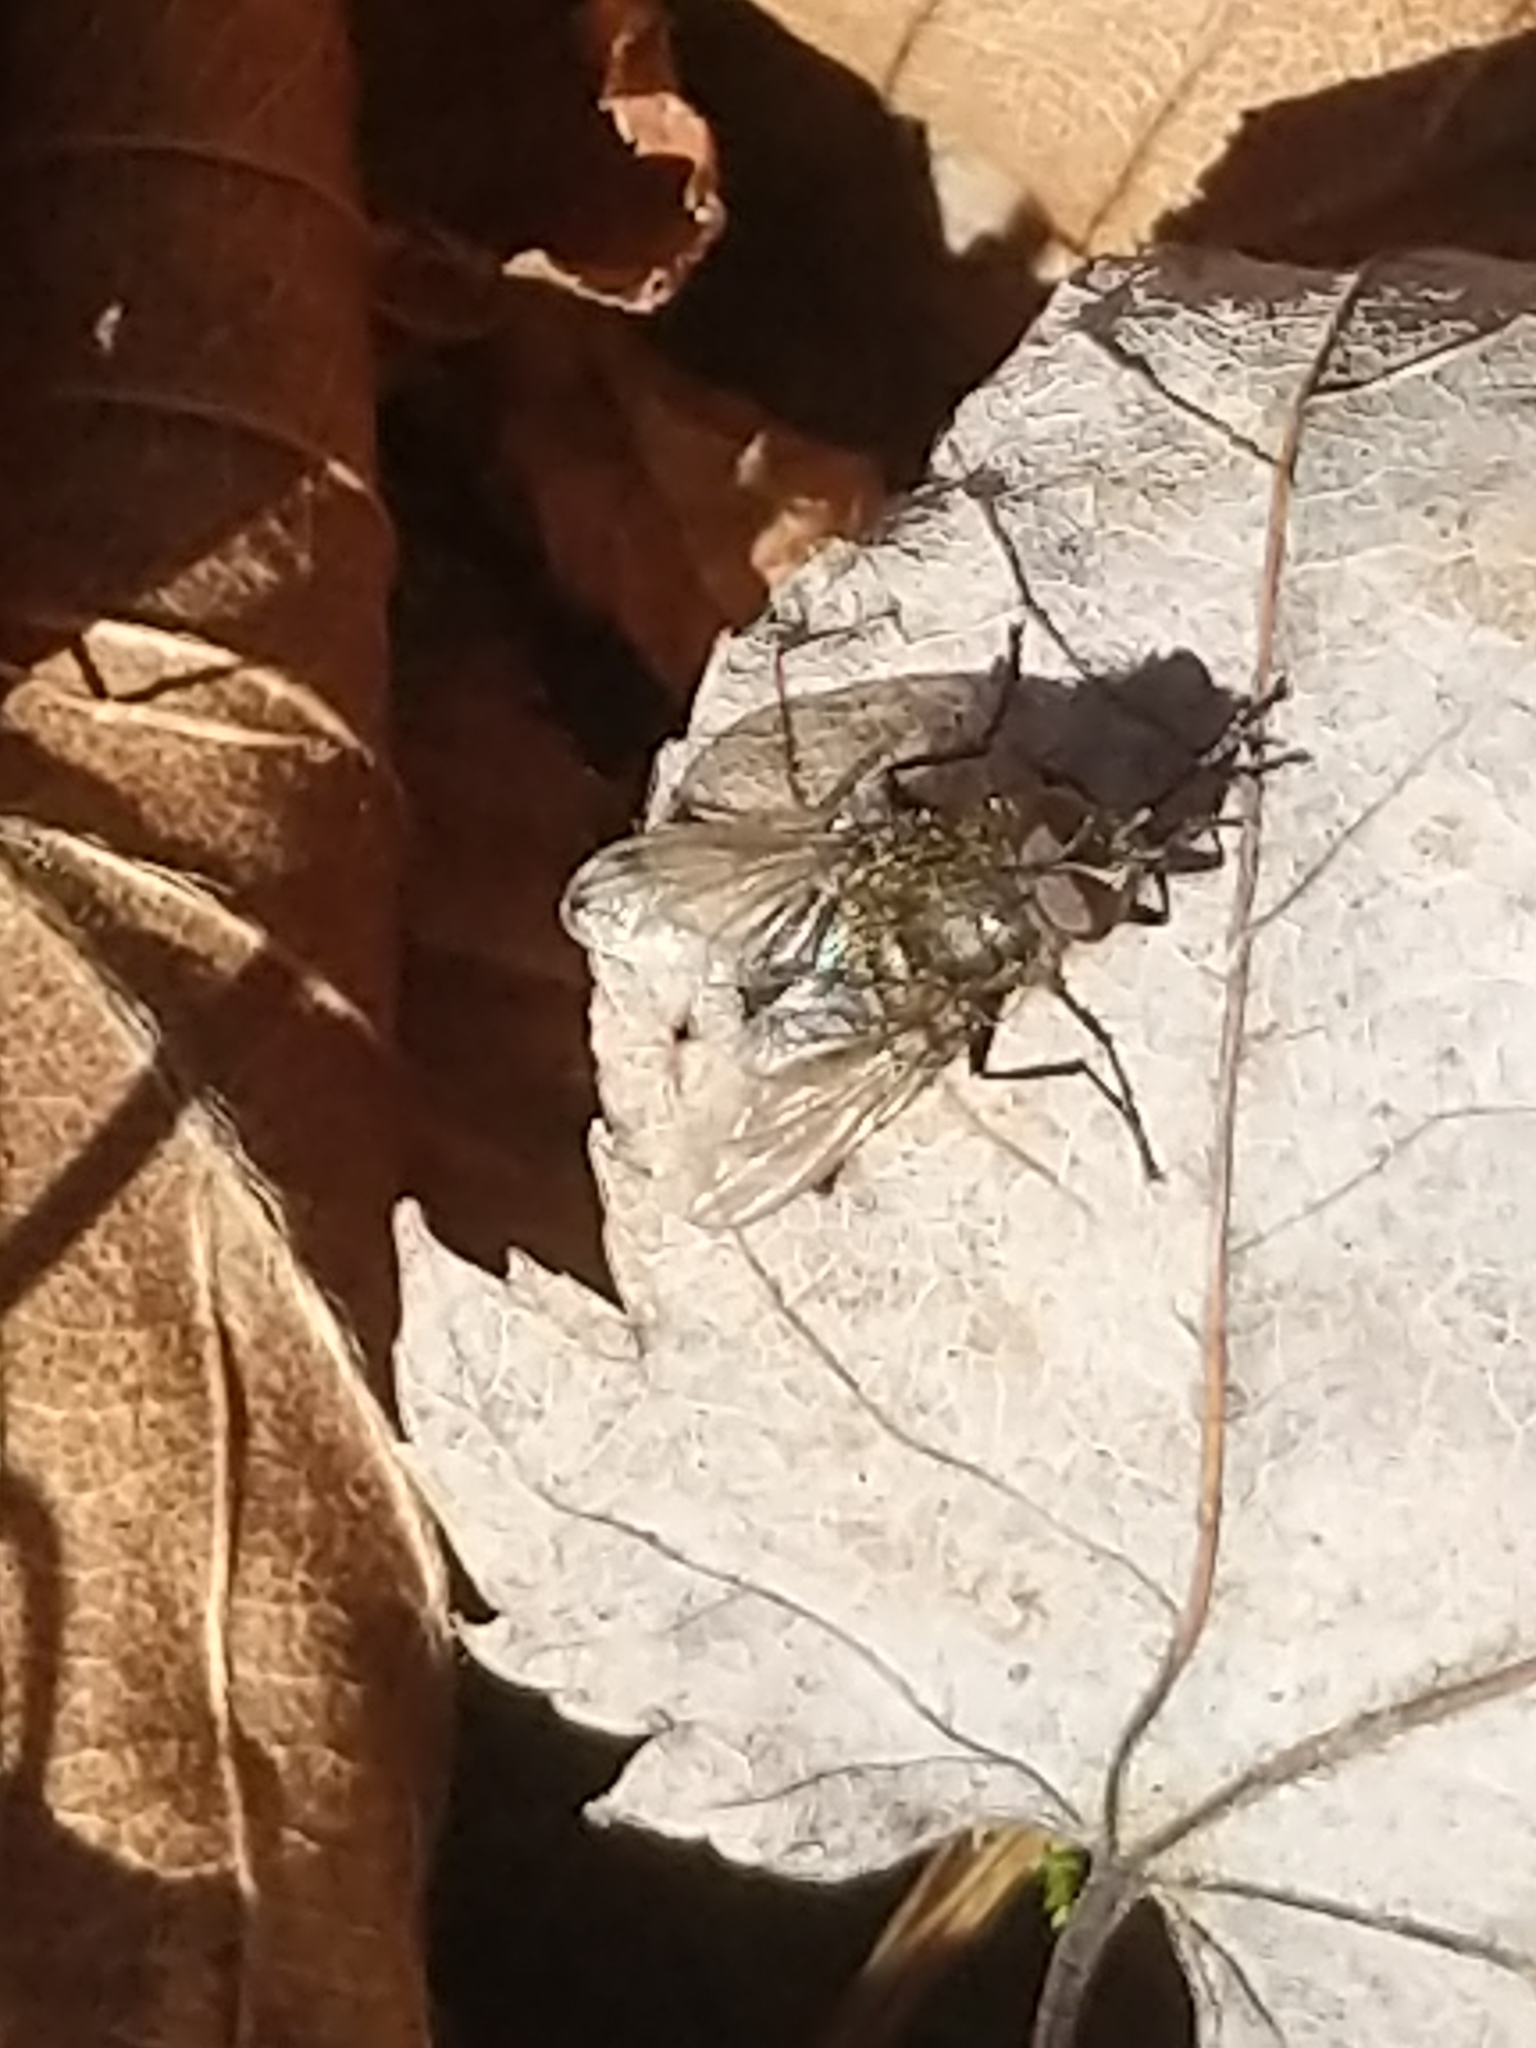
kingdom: Animalia
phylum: Arthropoda
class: Insecta
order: Diptera
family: Polleniidae
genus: Pollenia
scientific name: Pollenia
